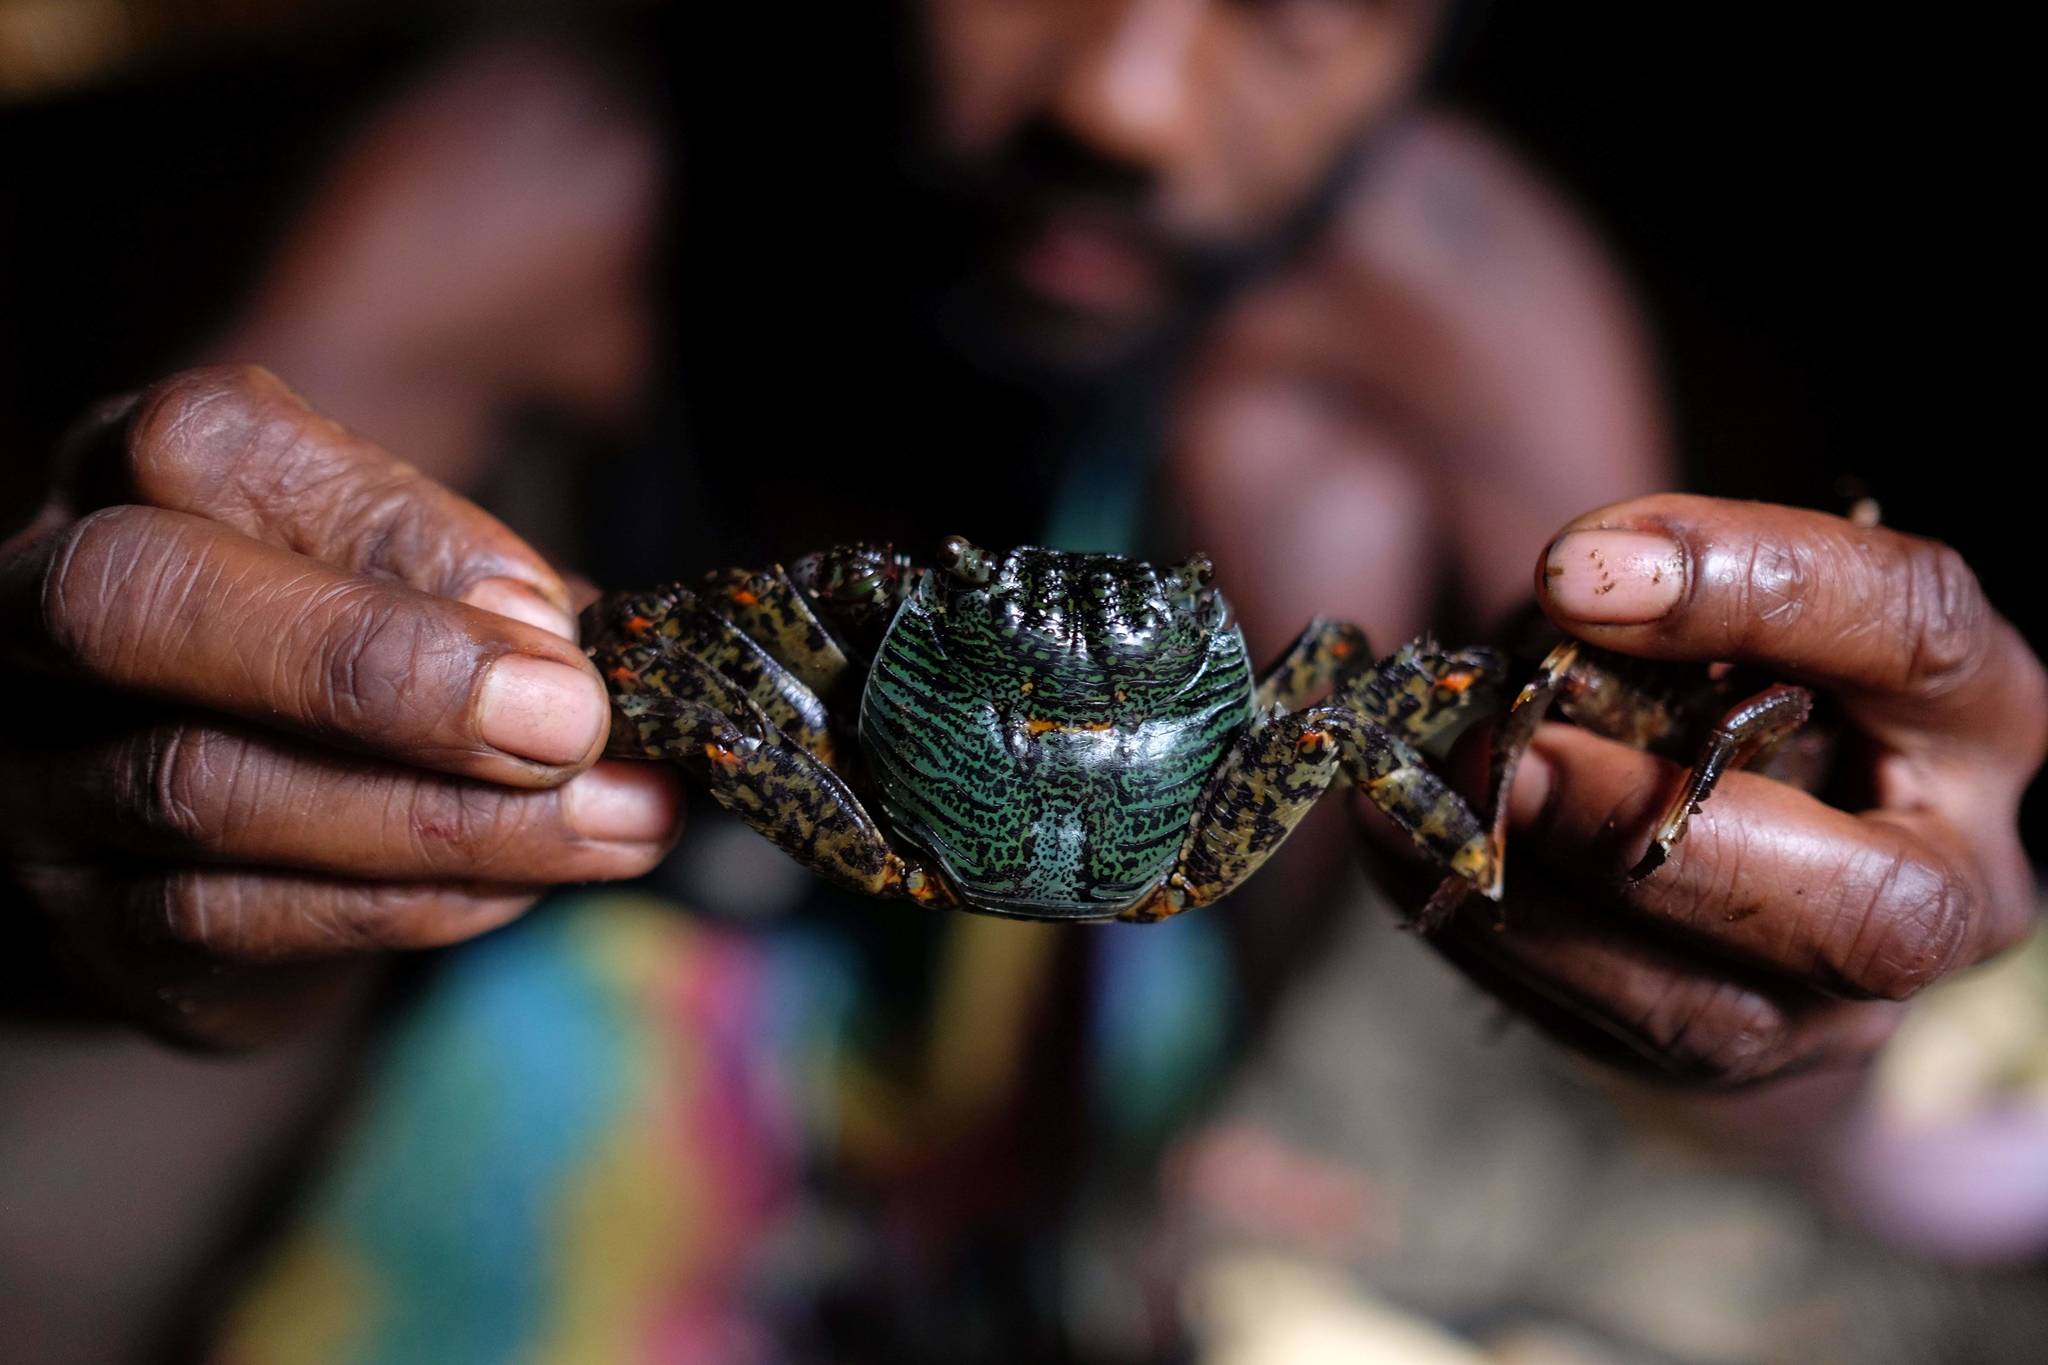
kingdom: Animalia
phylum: Arthropoda
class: Malacostraca
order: Decapoda
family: Grapsidae
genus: Grapsus
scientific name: Grapsus albolineatus
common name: Mottled lightfoot crab
